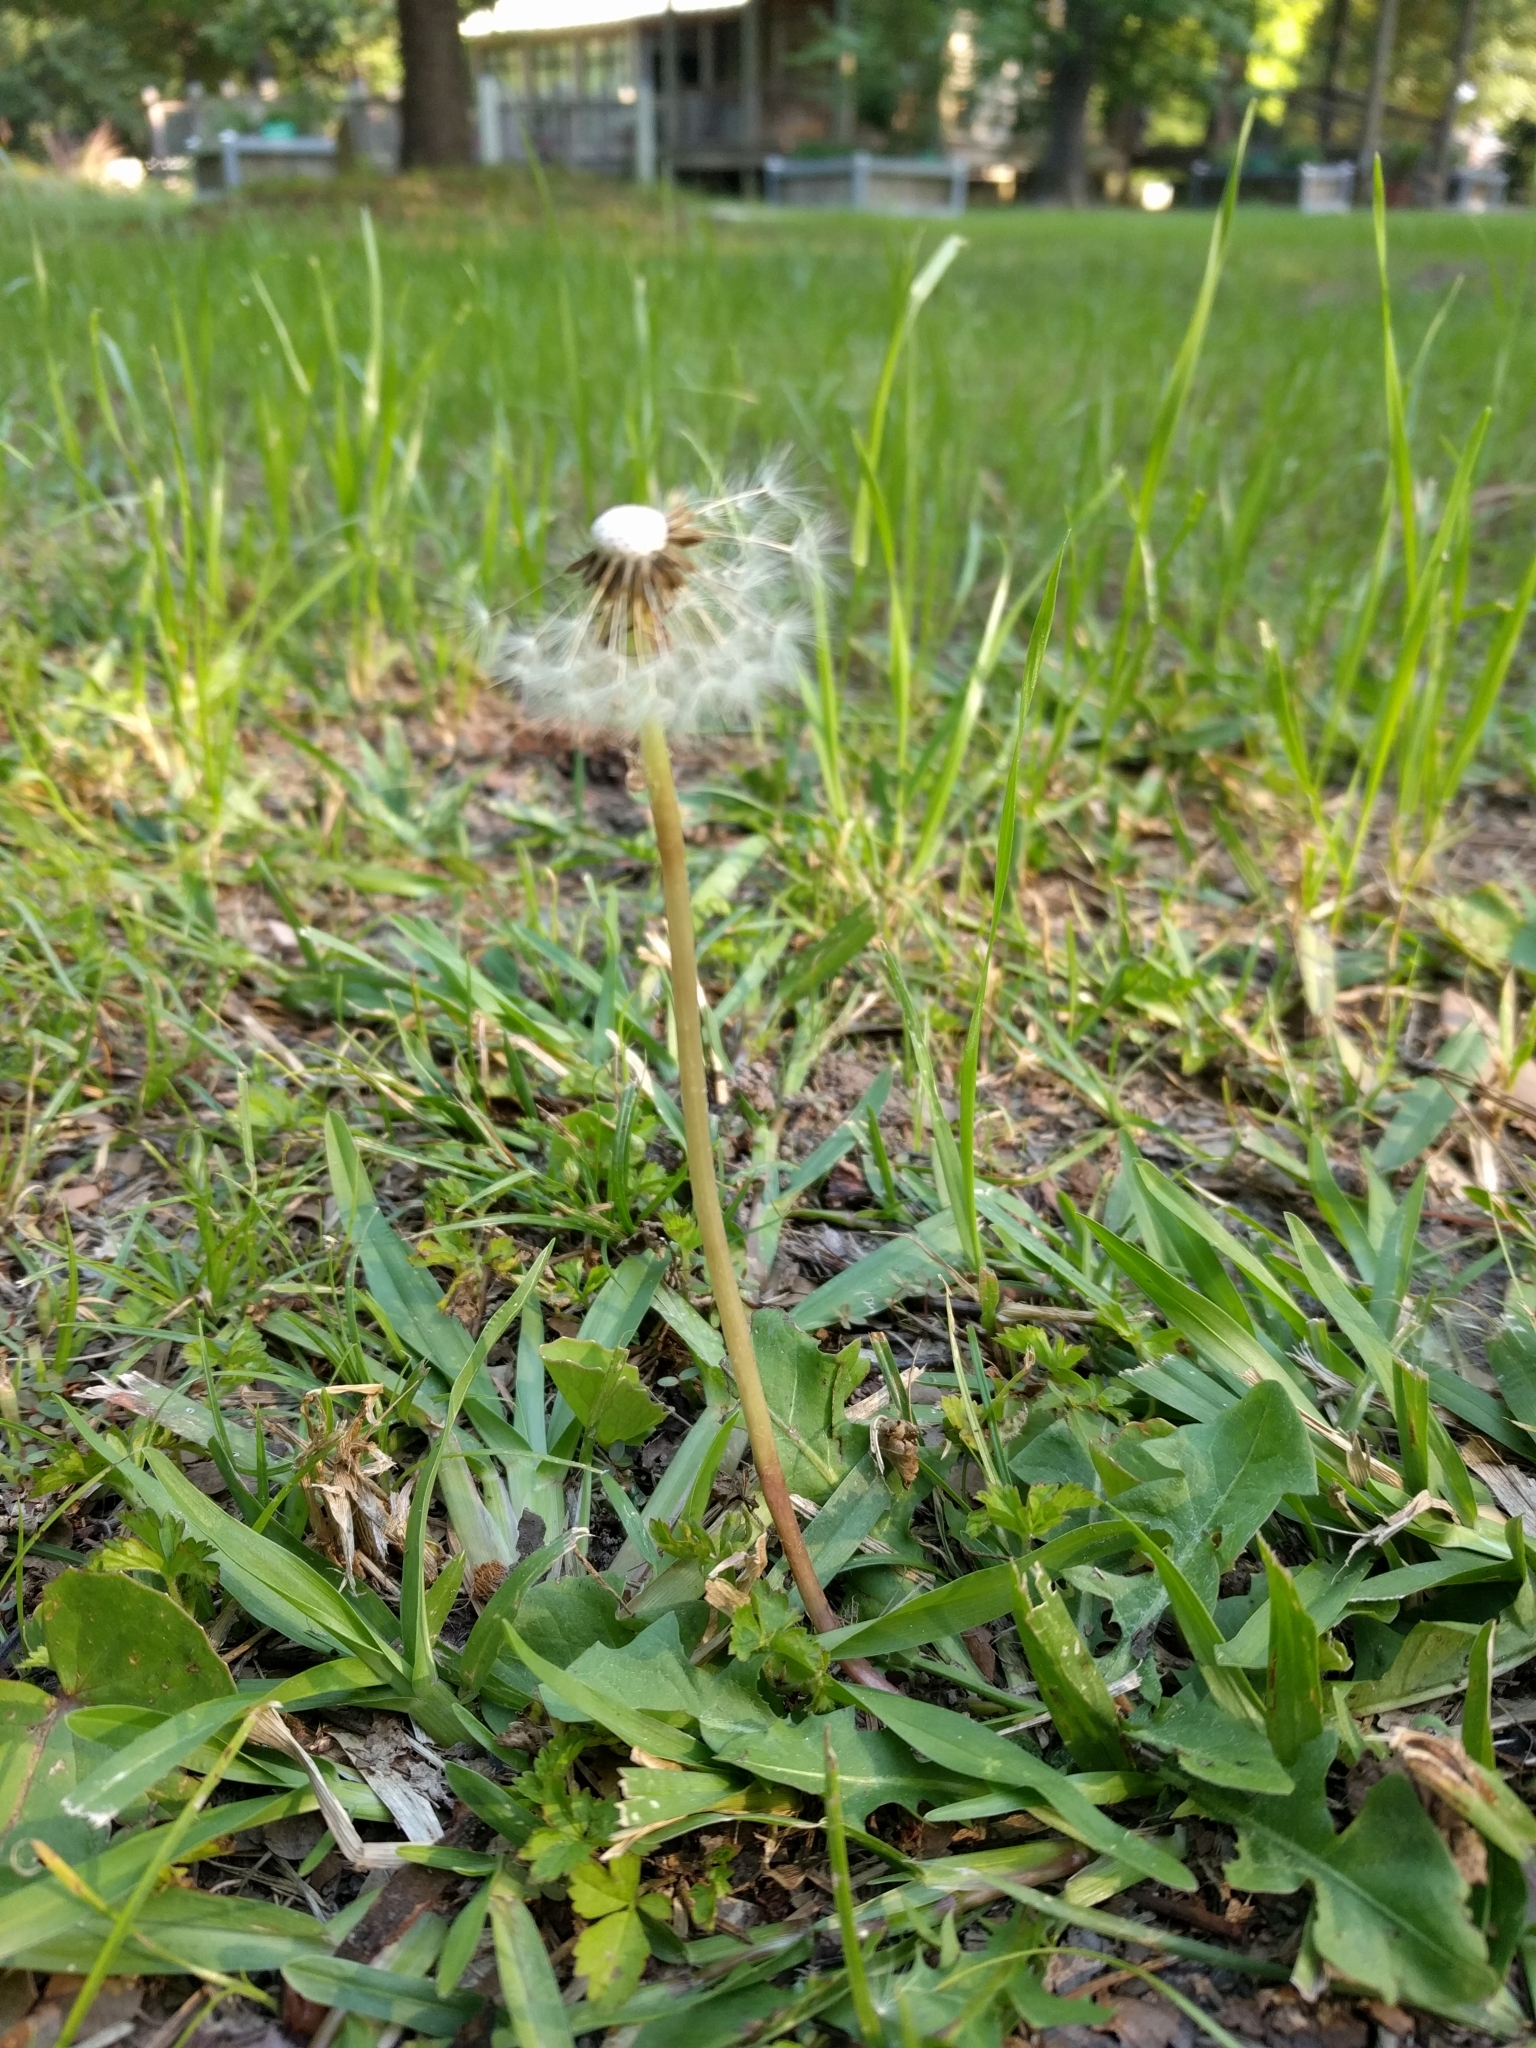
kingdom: Plantae
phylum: Tracheophyta
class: Magnoliopsida
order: Asterales
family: Asteraceae
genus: Taraxacum
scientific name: Taraxacum officinale
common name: Common dandelion
